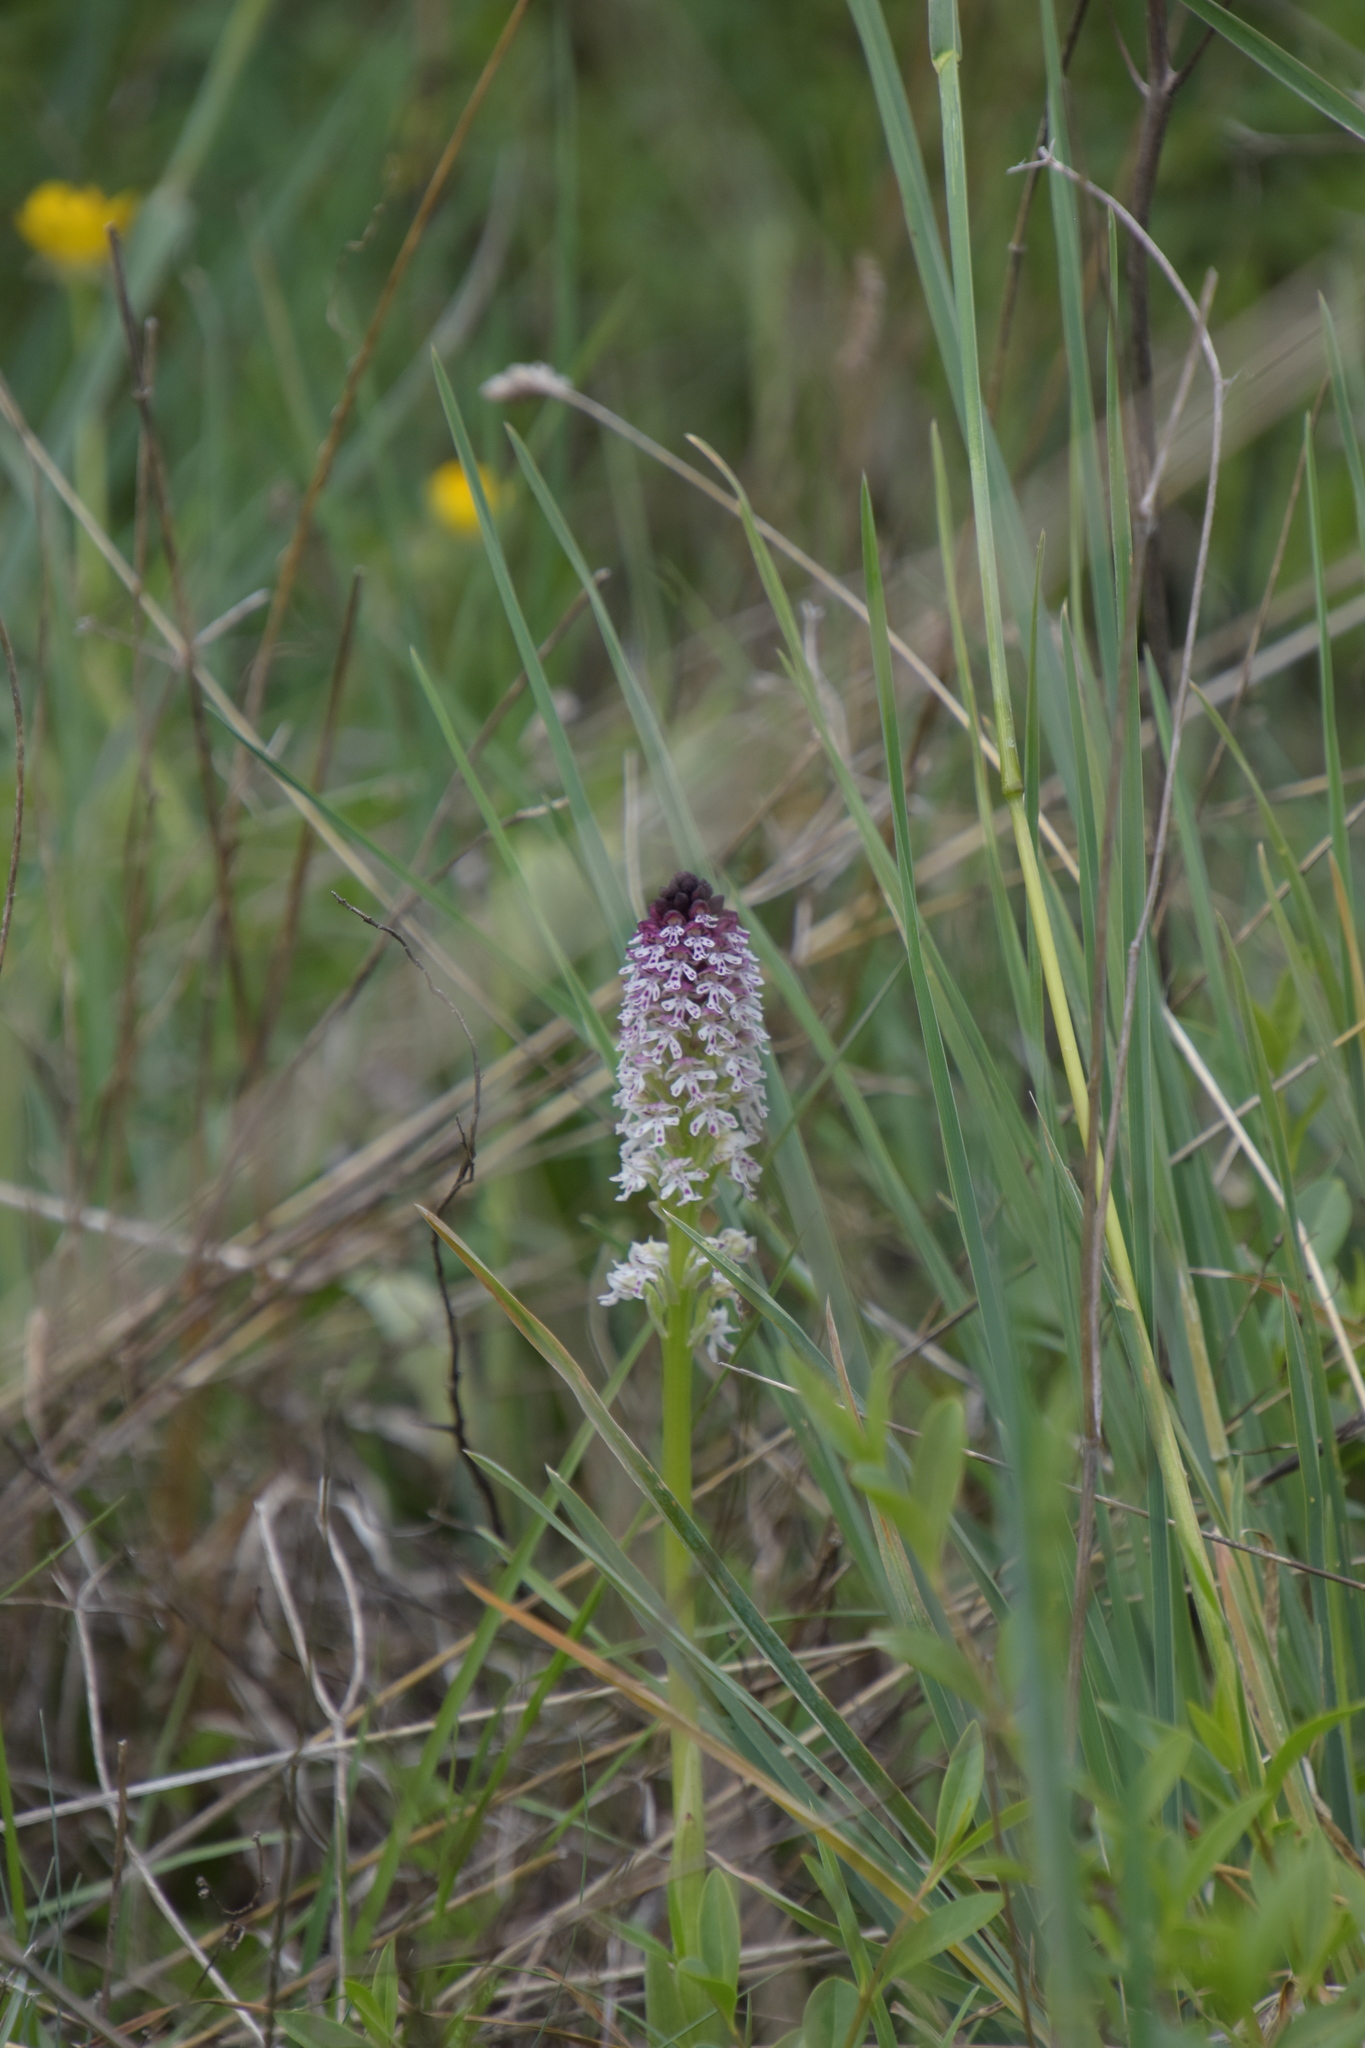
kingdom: Plantae
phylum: Tracheophyta
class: Liliopsida
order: Asparagales
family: Orchidaceae
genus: Neotinea
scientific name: Neotinea ustulata
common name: Burnt orchid
